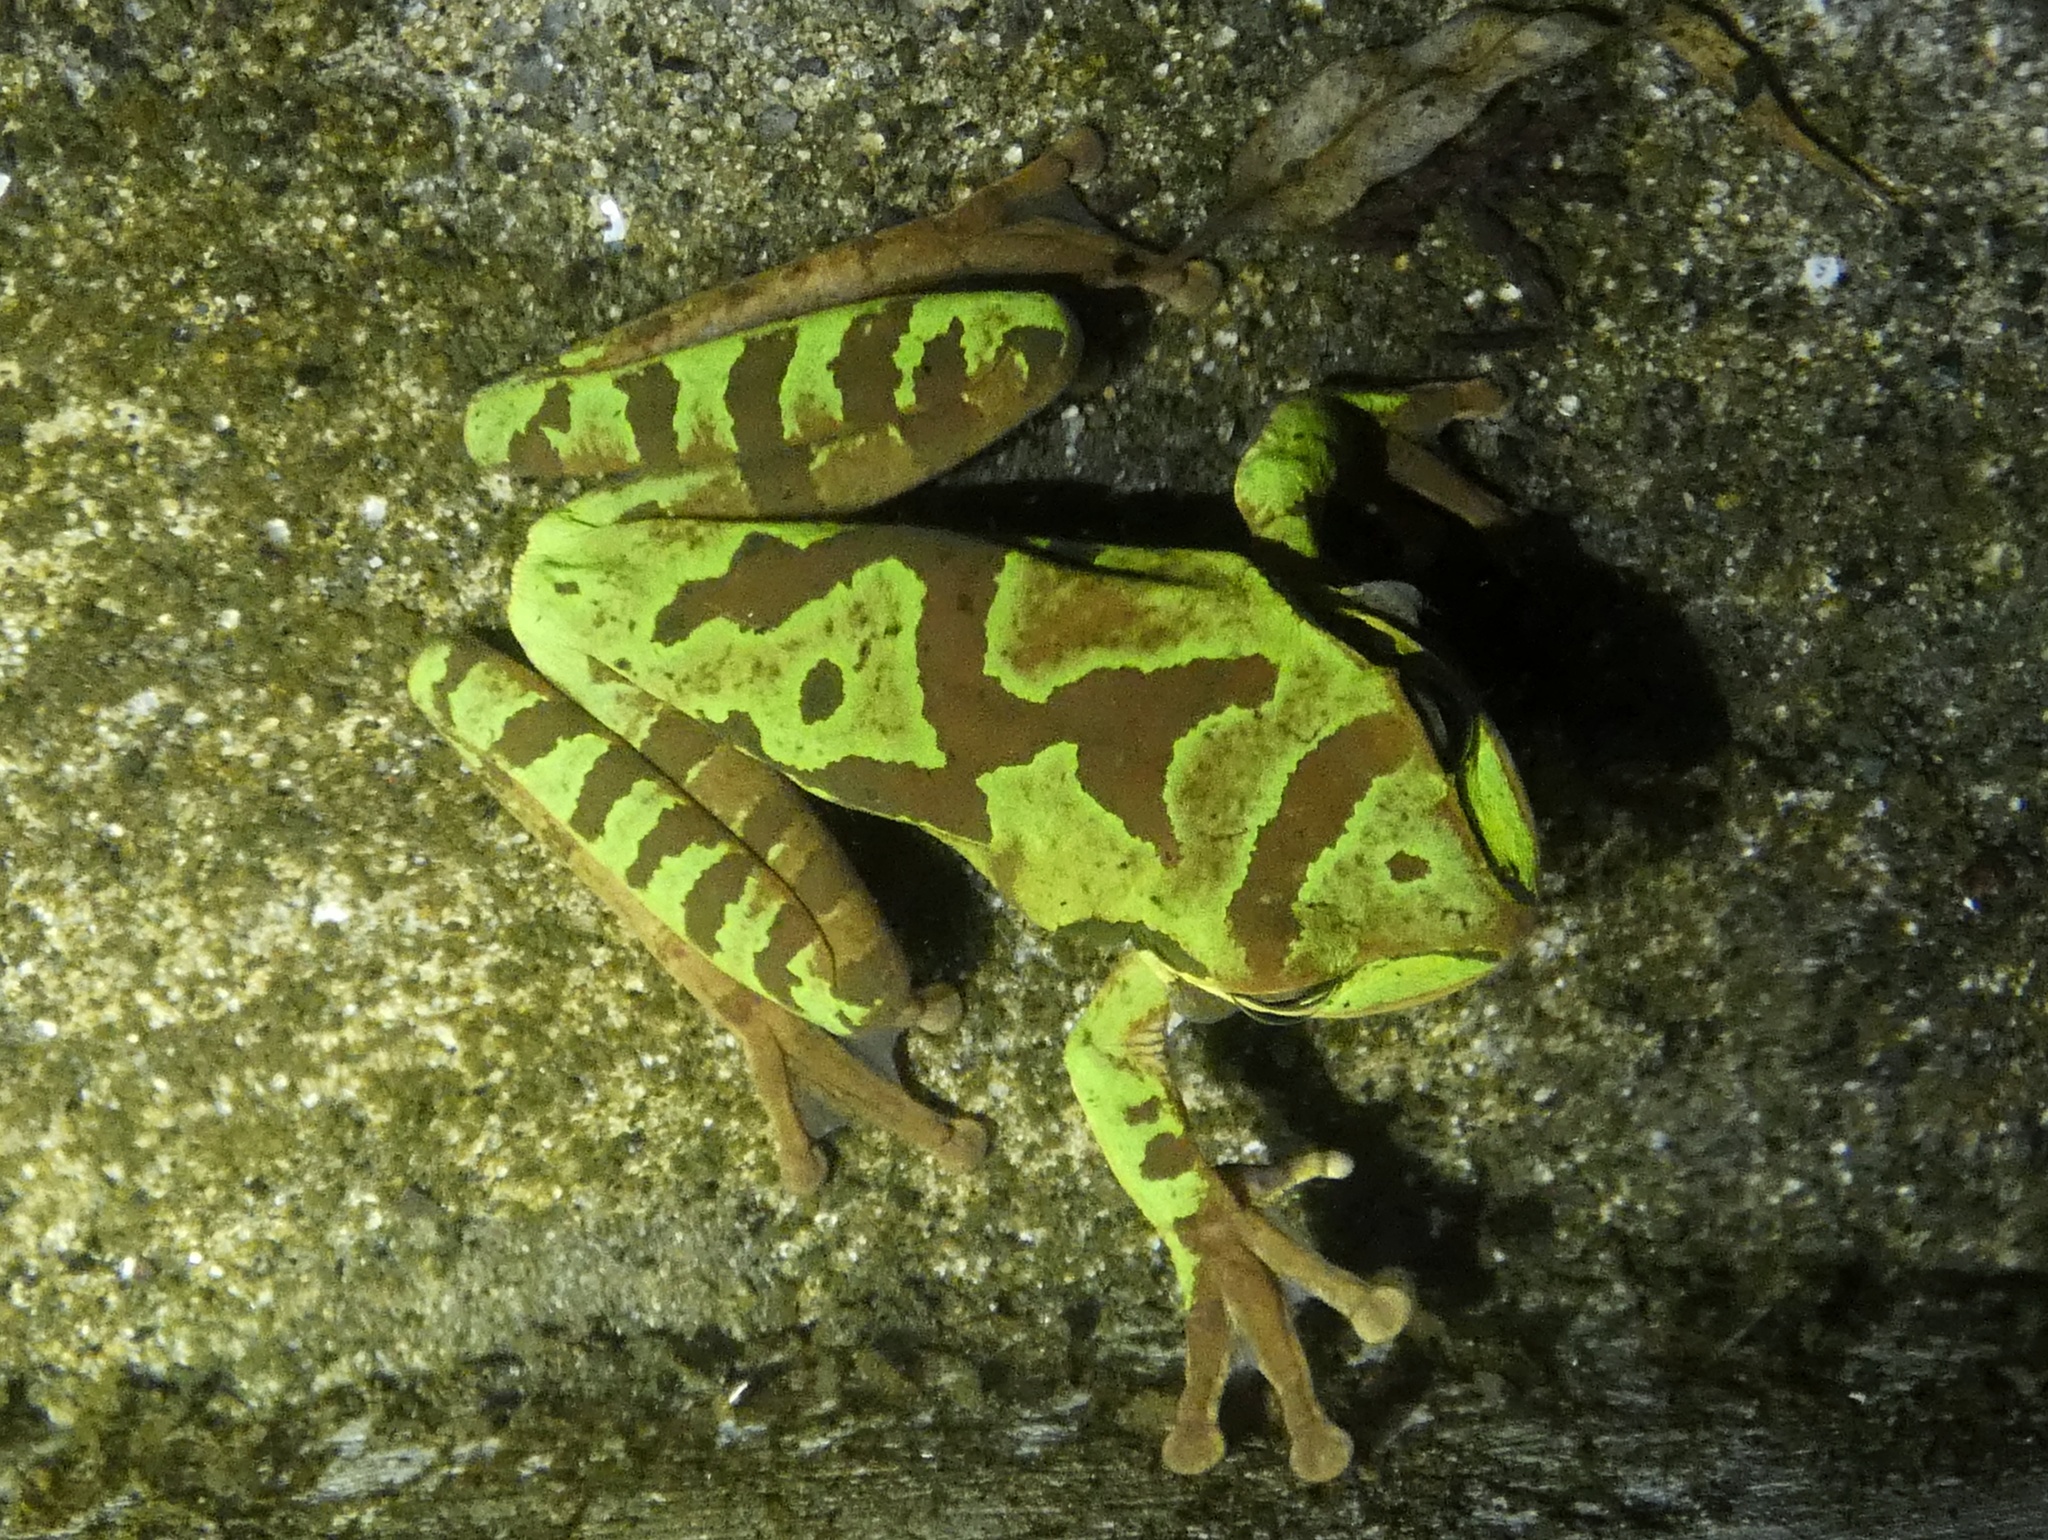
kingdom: Animalia
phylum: Chordata
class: Amphibia
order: Anura
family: Hylidae
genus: Smilisca
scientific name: Smilisca phaeota
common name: Central american smilisca
